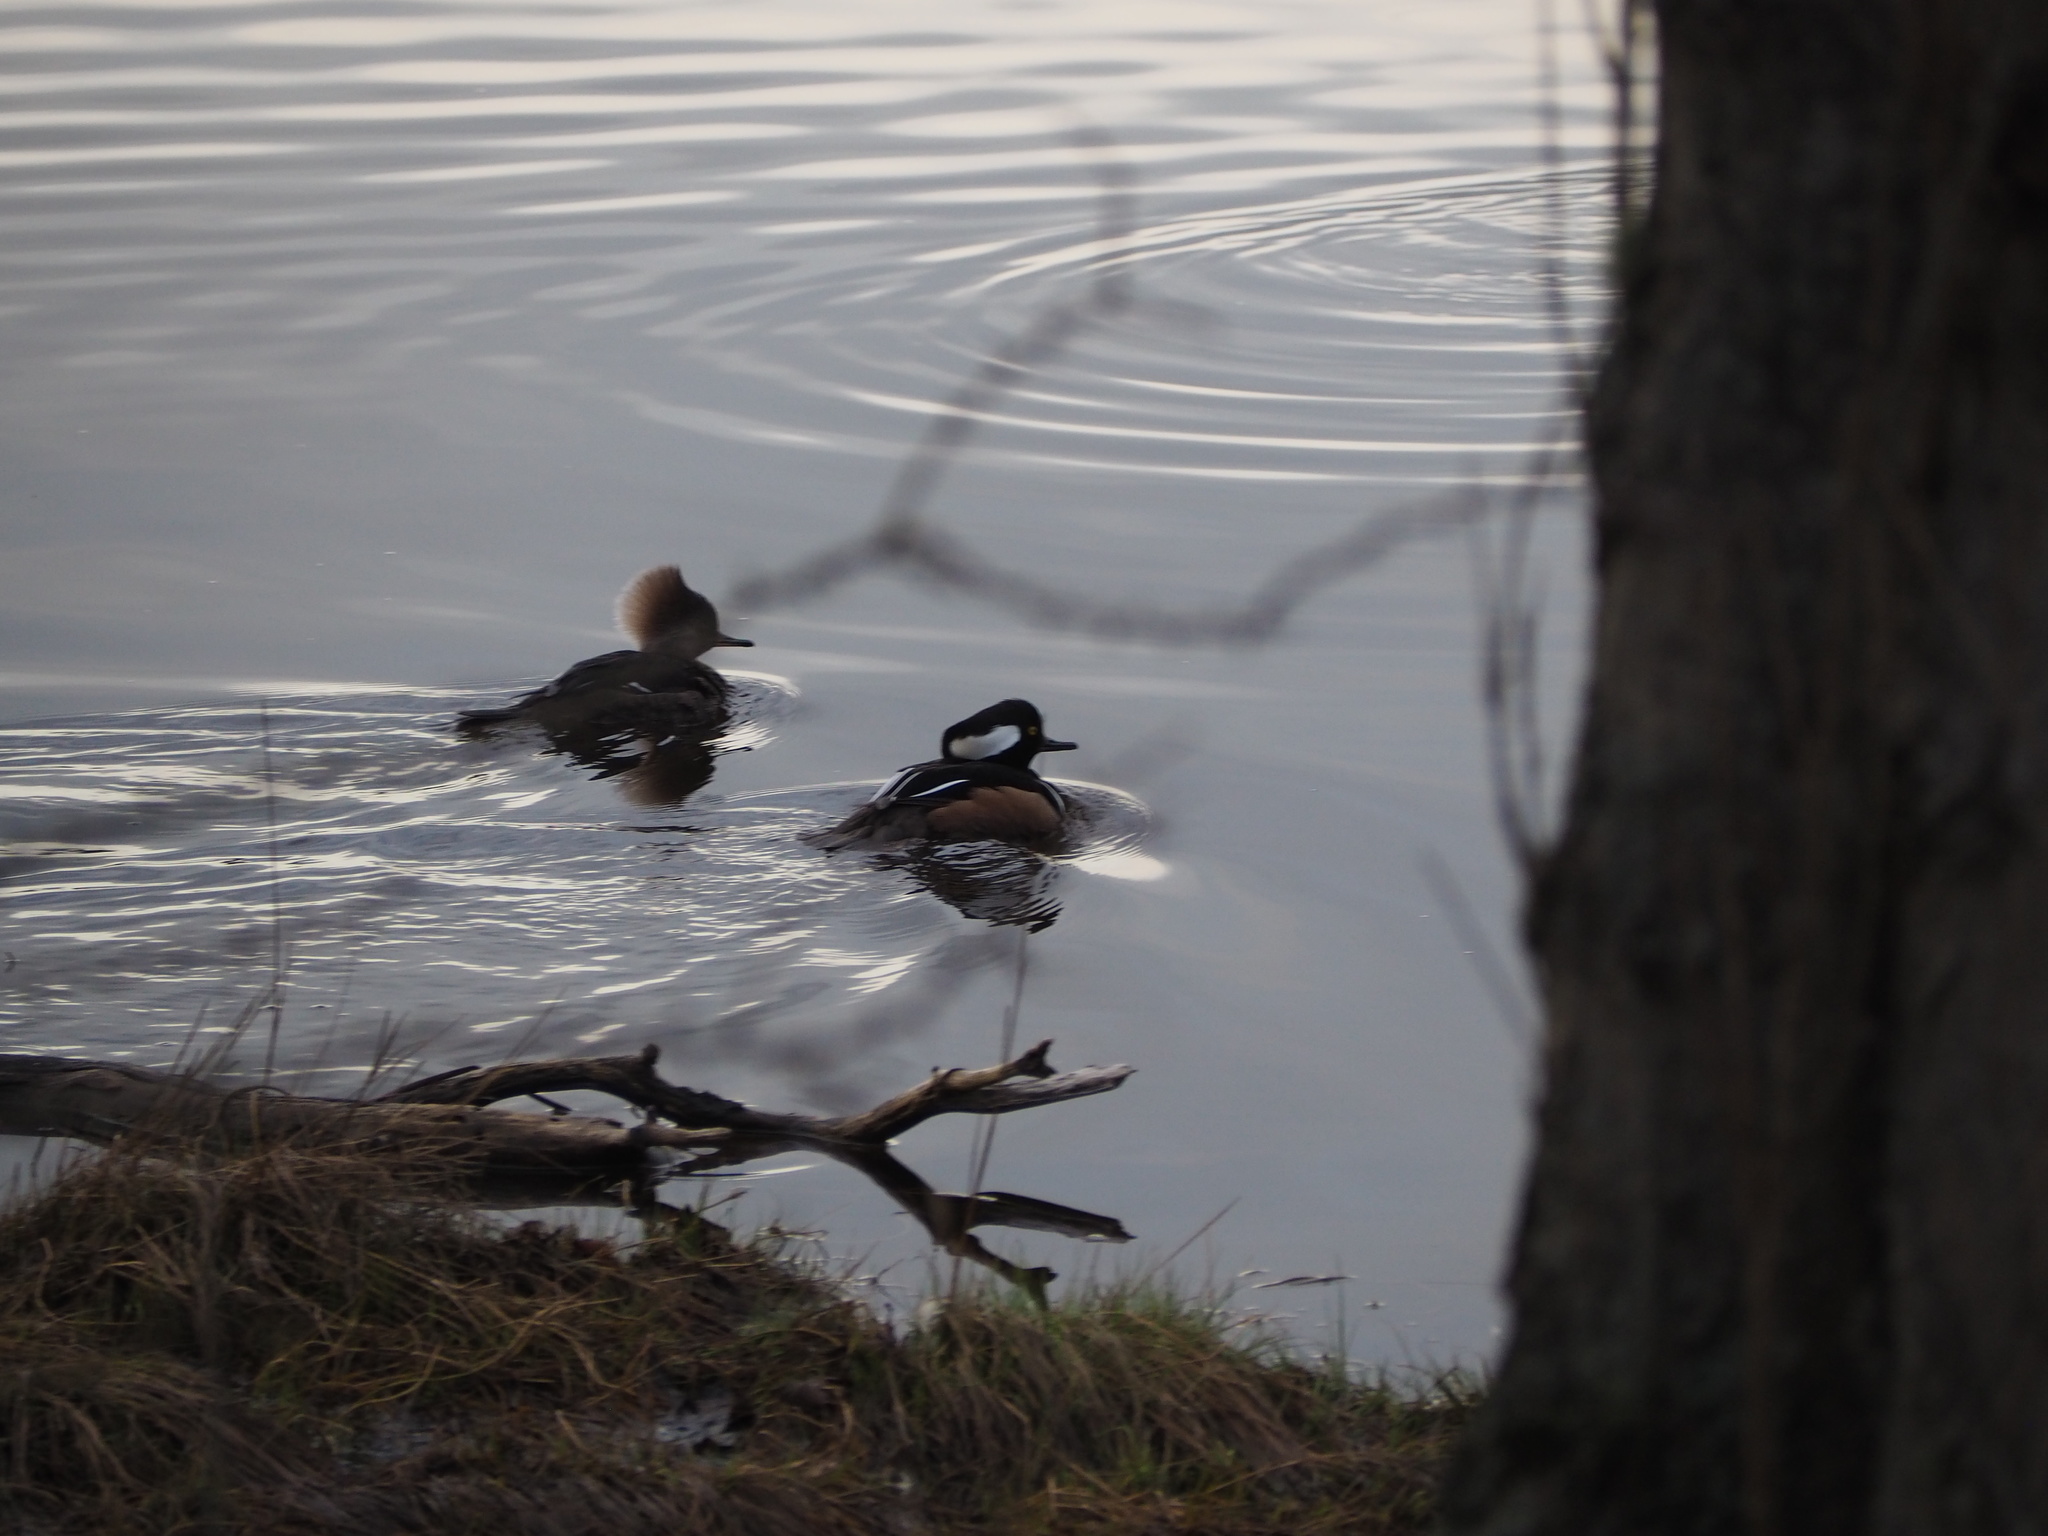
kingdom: Animalia
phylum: Chordata
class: Aves
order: Anseriformes
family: Anatidae
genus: Lophodytes
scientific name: Lophodytes cucullatus
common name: Hooded merganser
